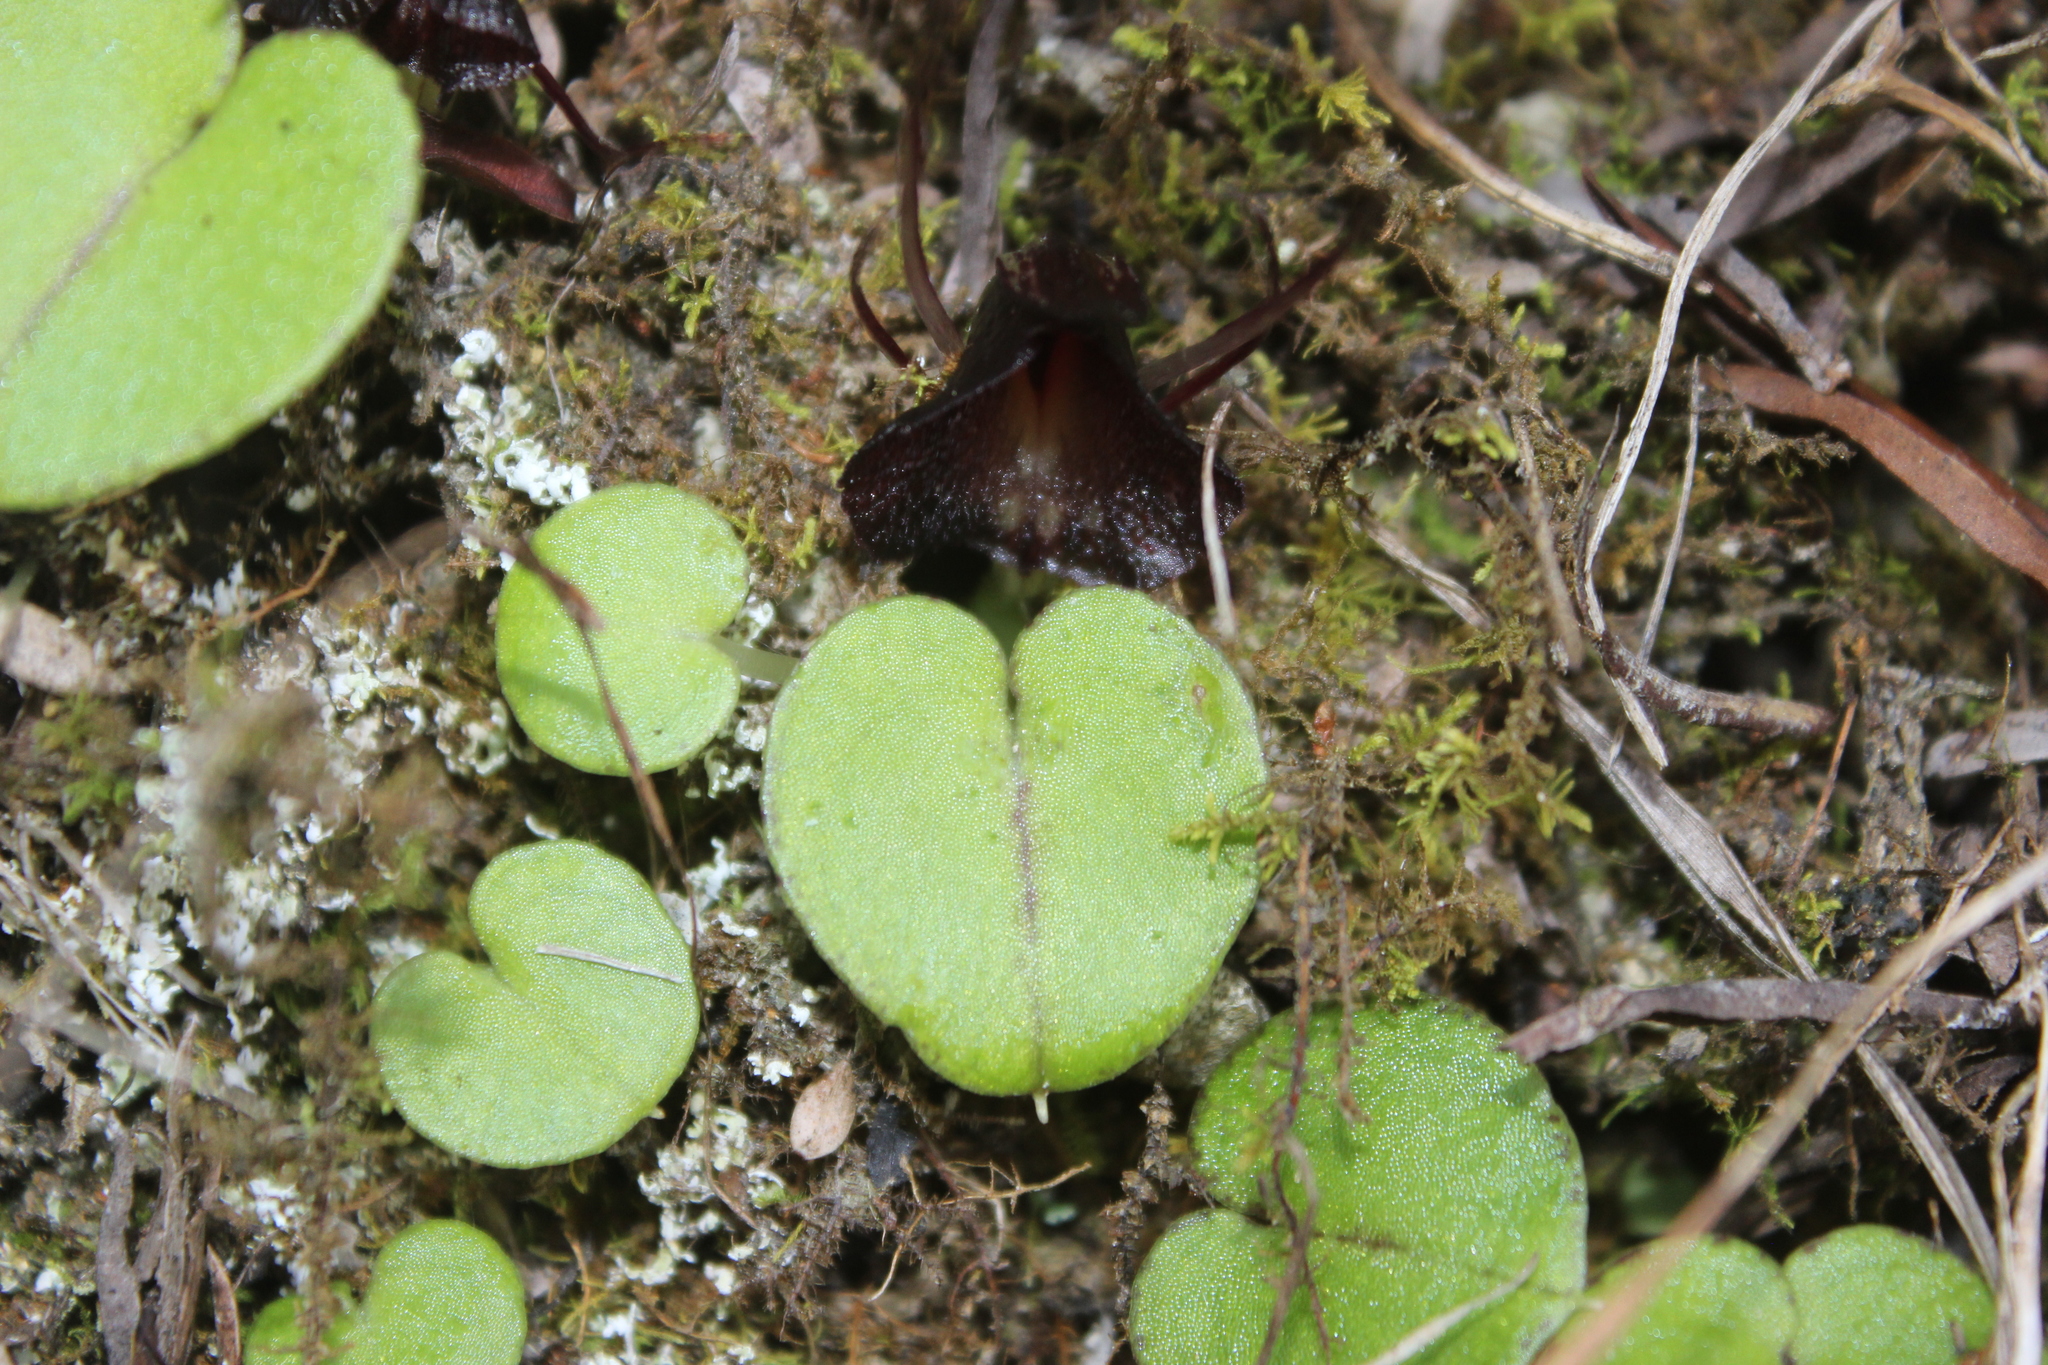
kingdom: Plantae
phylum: Tracheophyta
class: Liliopsida
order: Asparagales
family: Orchidaceae
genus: Corybas
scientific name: Corybas macranthus
